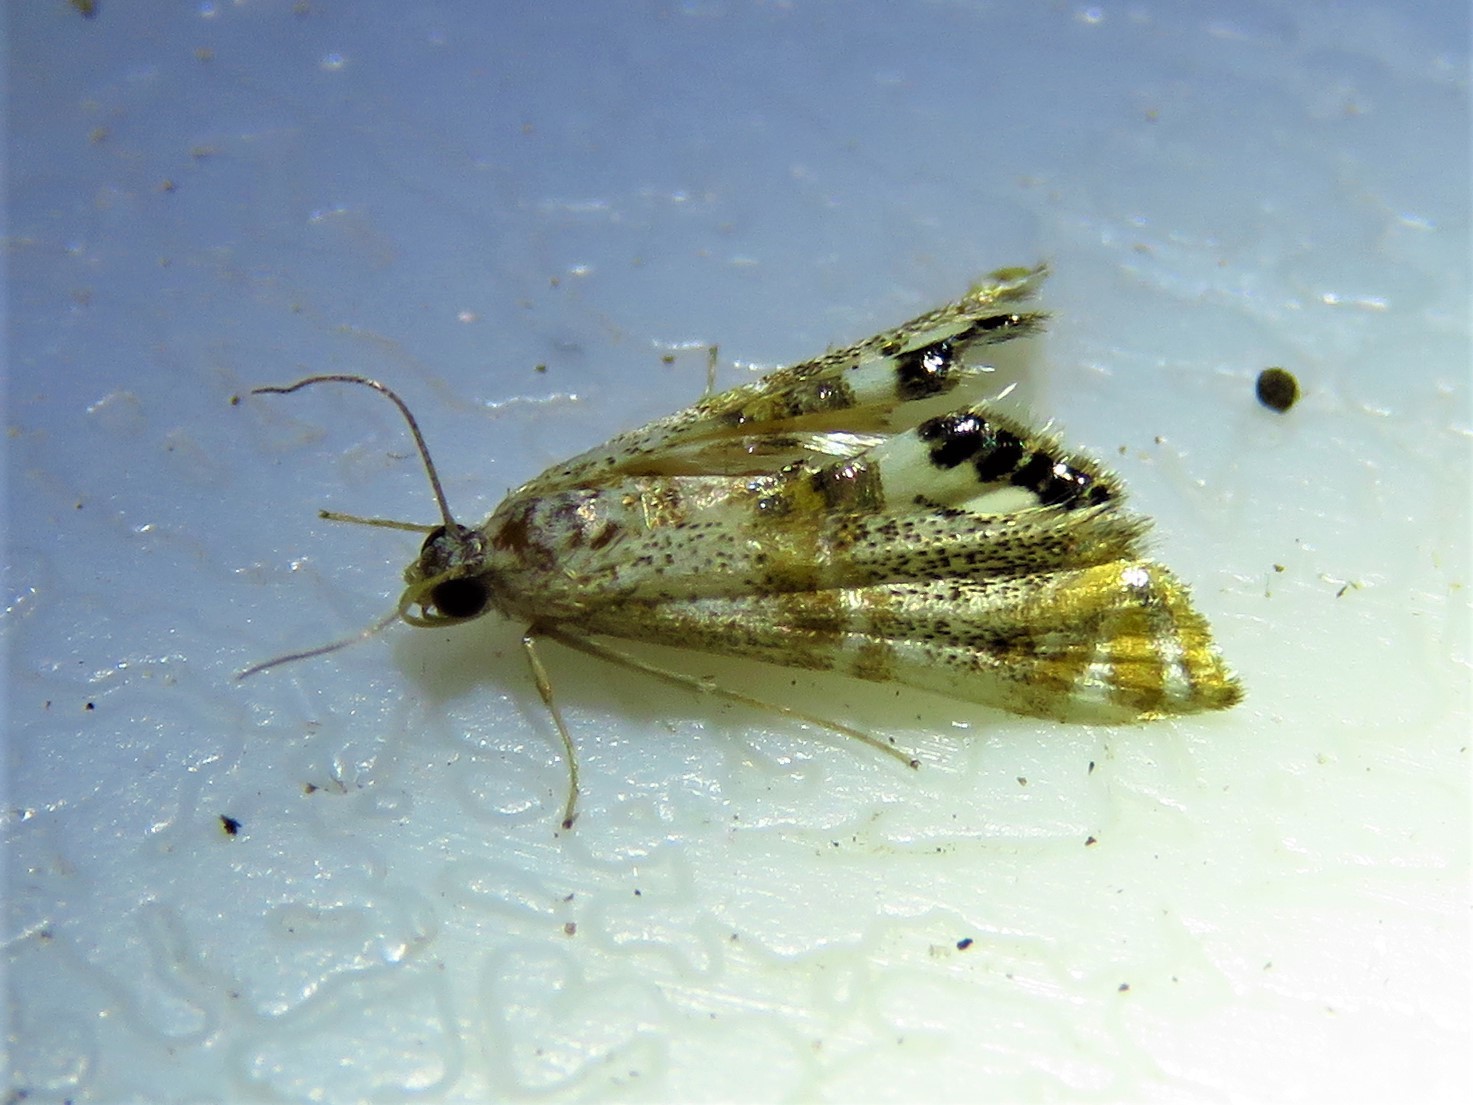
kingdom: Animalia
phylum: Arthropoda
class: Insecta
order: Lepidoptera
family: Crambidae
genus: Petrophila
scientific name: Petrophila bifascialis
